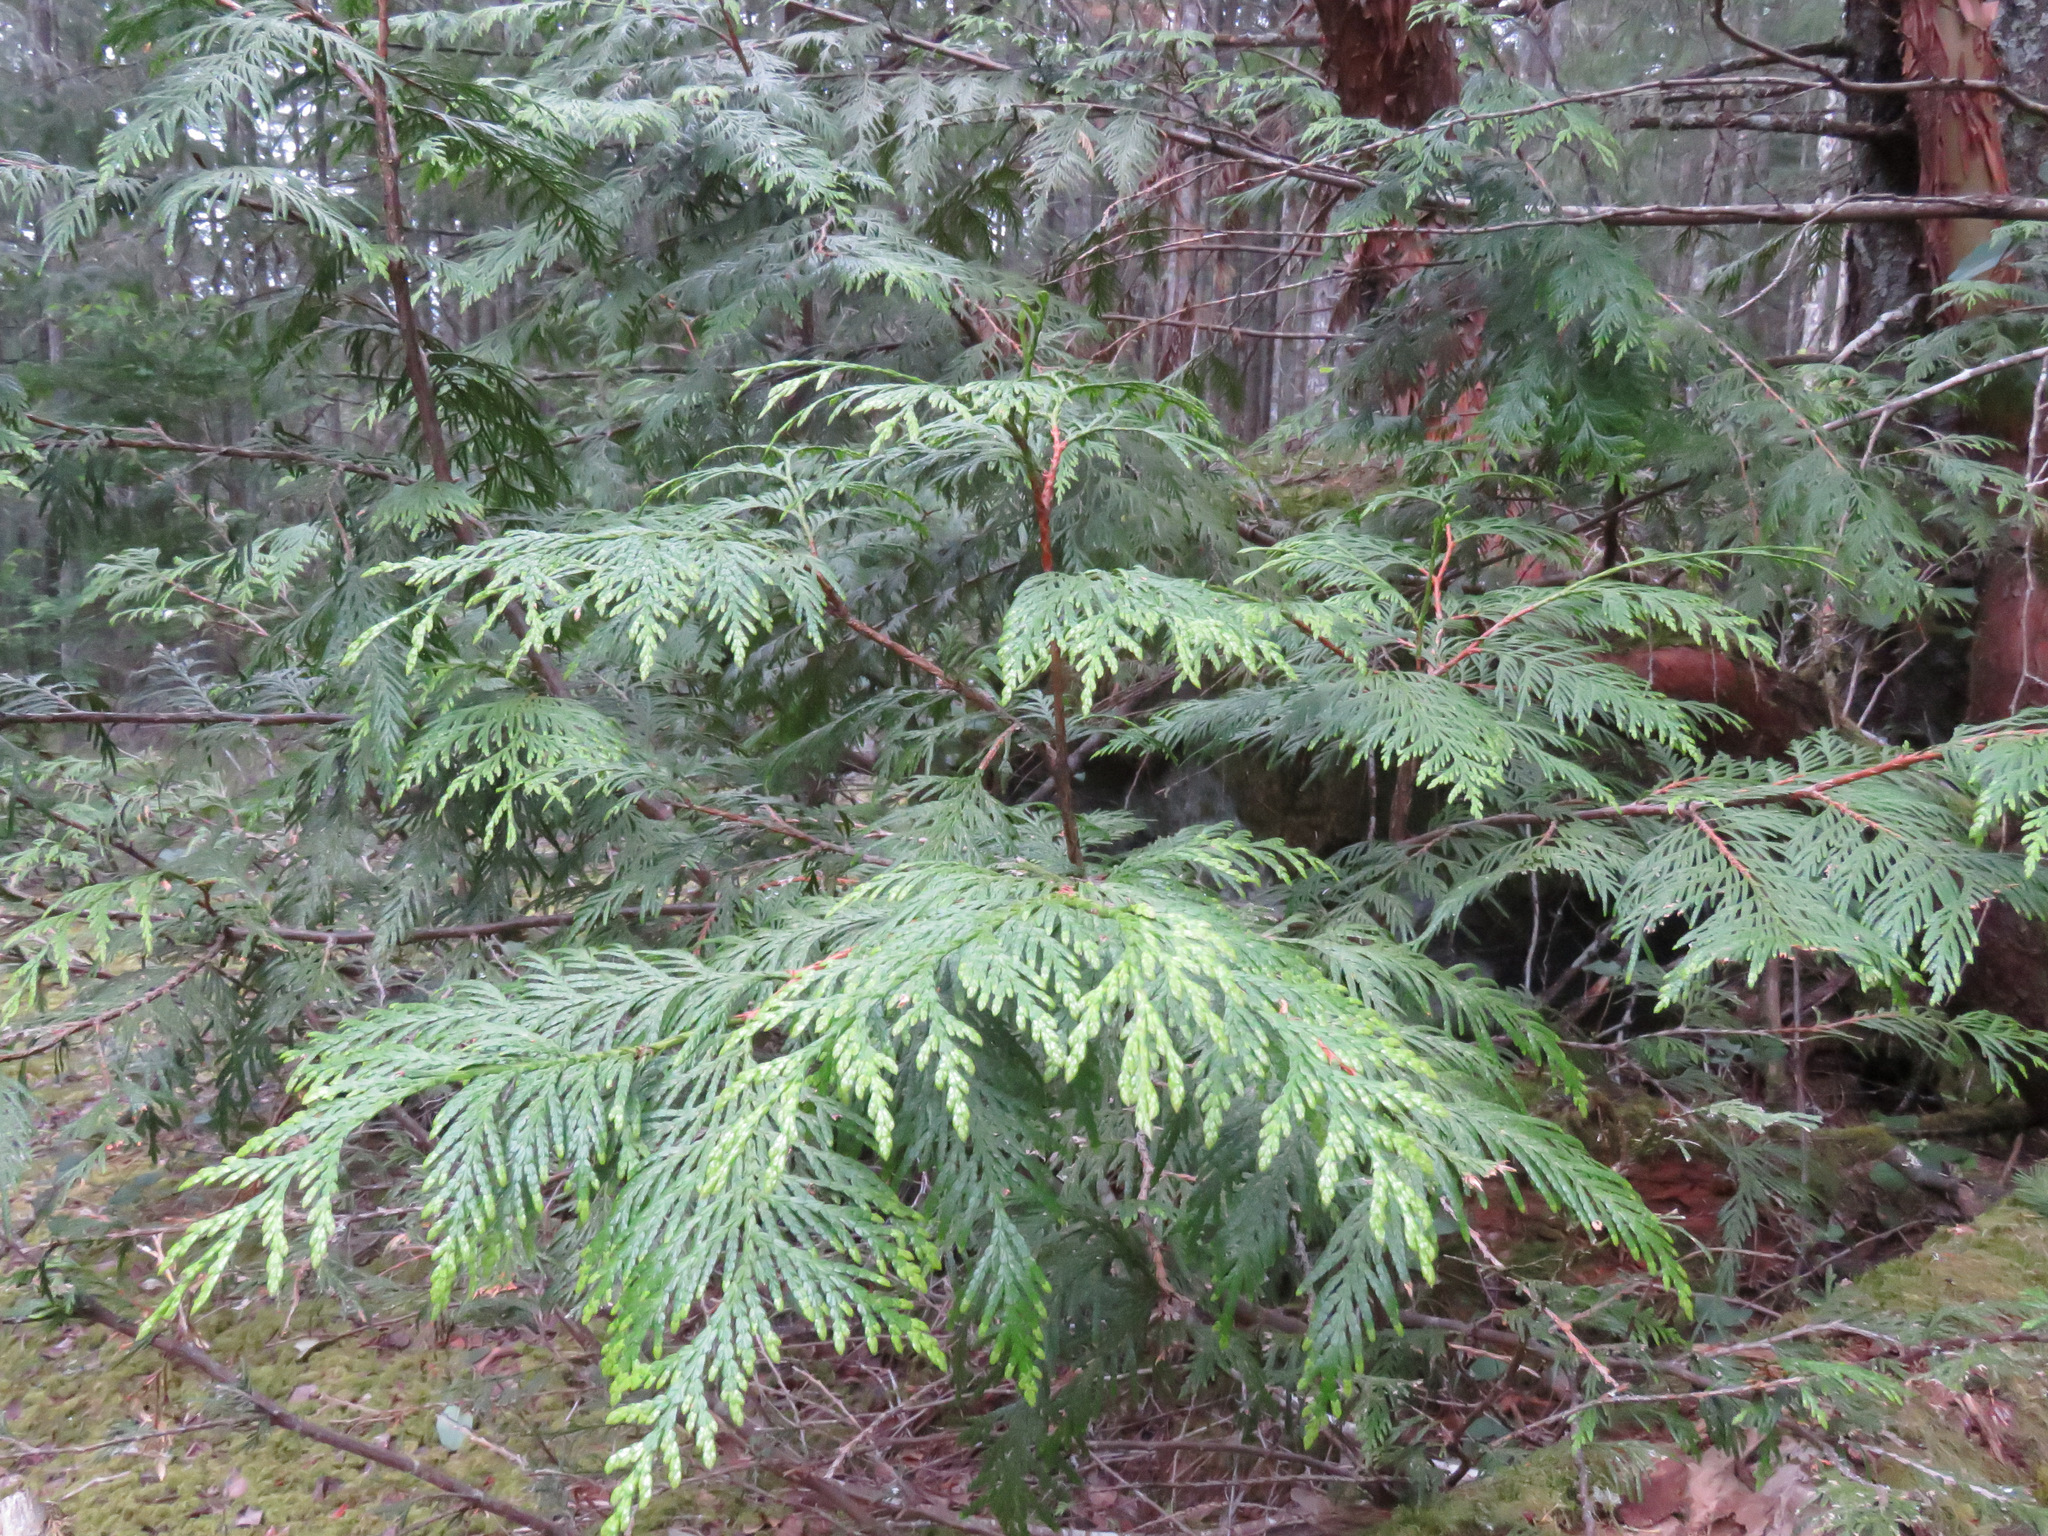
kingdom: Plantae
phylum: Tracheophyta
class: Pinopsida
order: Pinales
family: Cupressaceae
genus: Thuja
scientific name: Thuja plicata
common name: Western red-cedar
